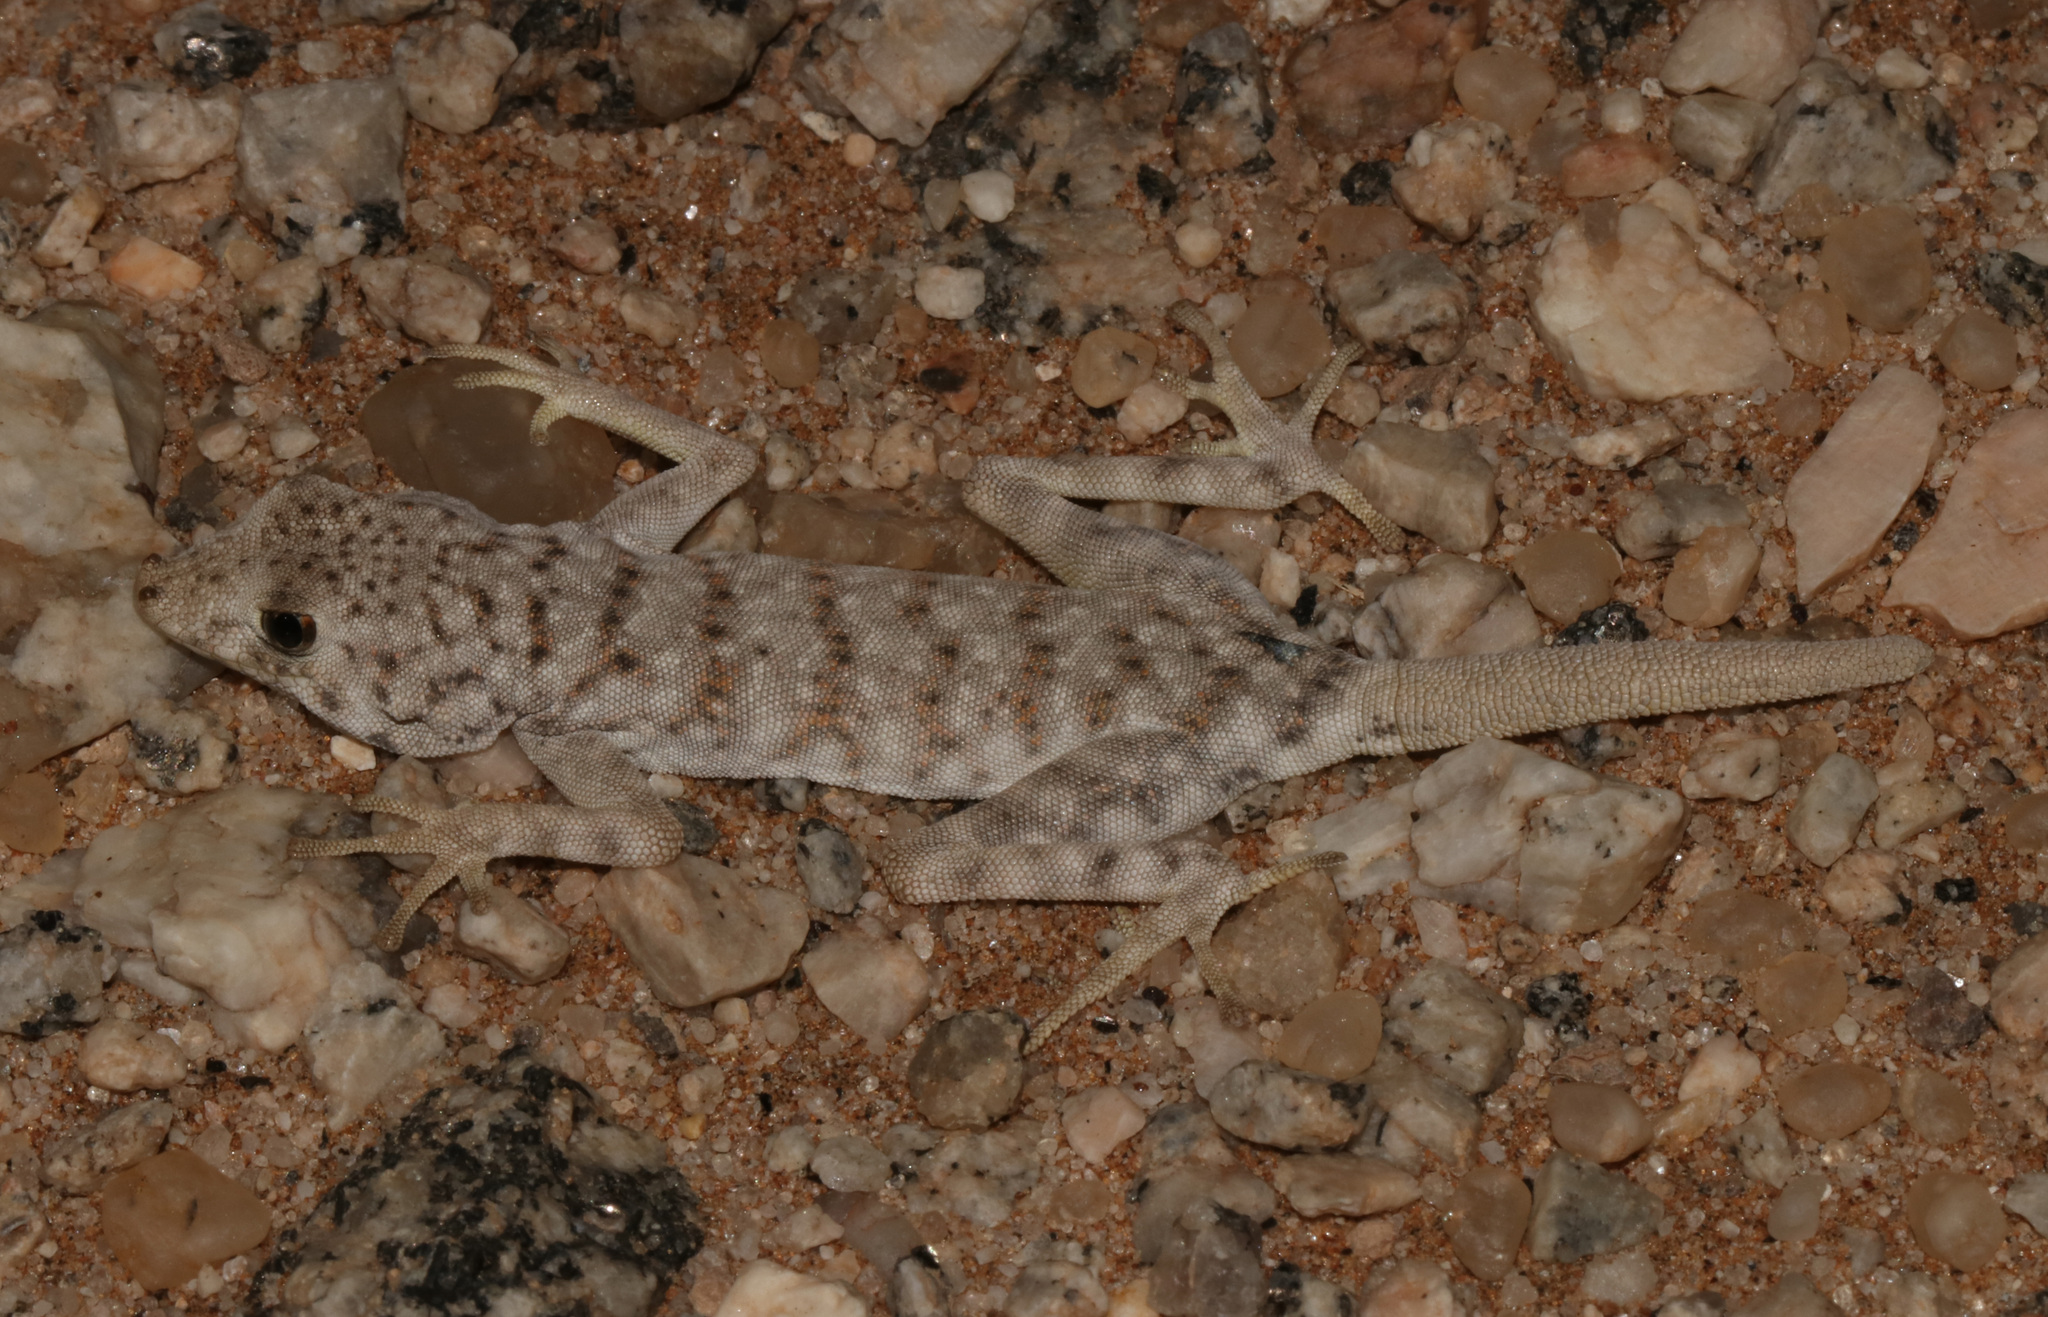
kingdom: Animalia
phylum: Chordata
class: Squamata
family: Gekkonidae
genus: Rhoptropus
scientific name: Rhoptropus afer
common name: Namib day gecko
